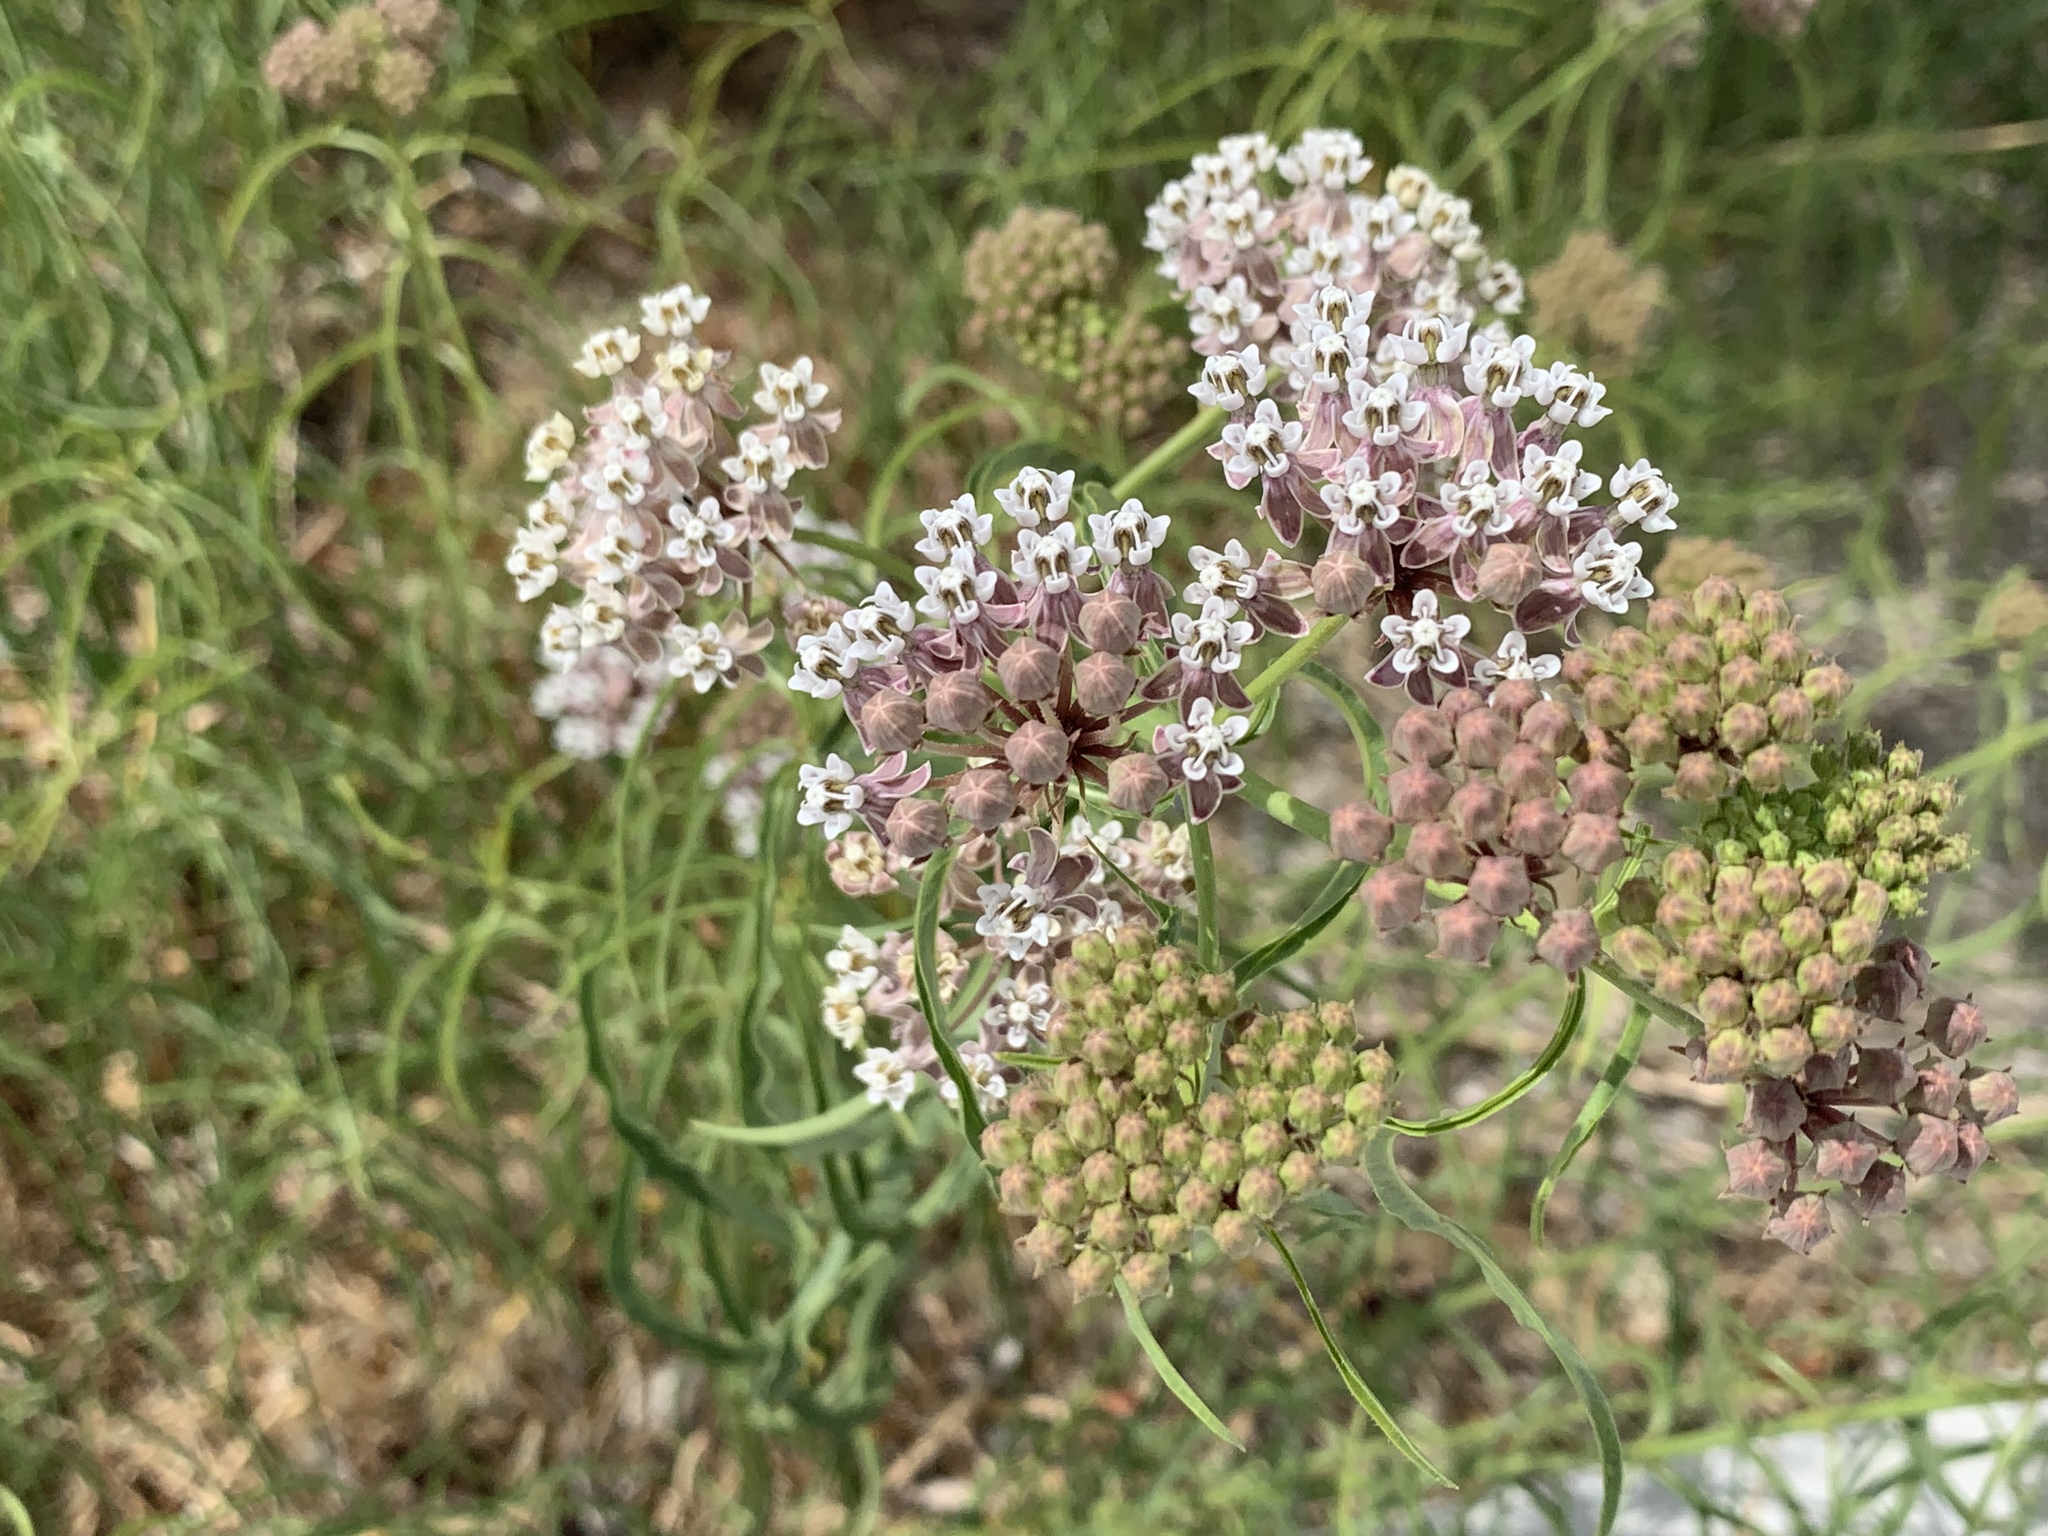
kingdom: Plantae
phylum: Tracheophyta
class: Magnoliopsida
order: Gentianales
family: Apocynaceae
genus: Asclepias
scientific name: Asclepias fascicularis
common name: Mexican milkweed
